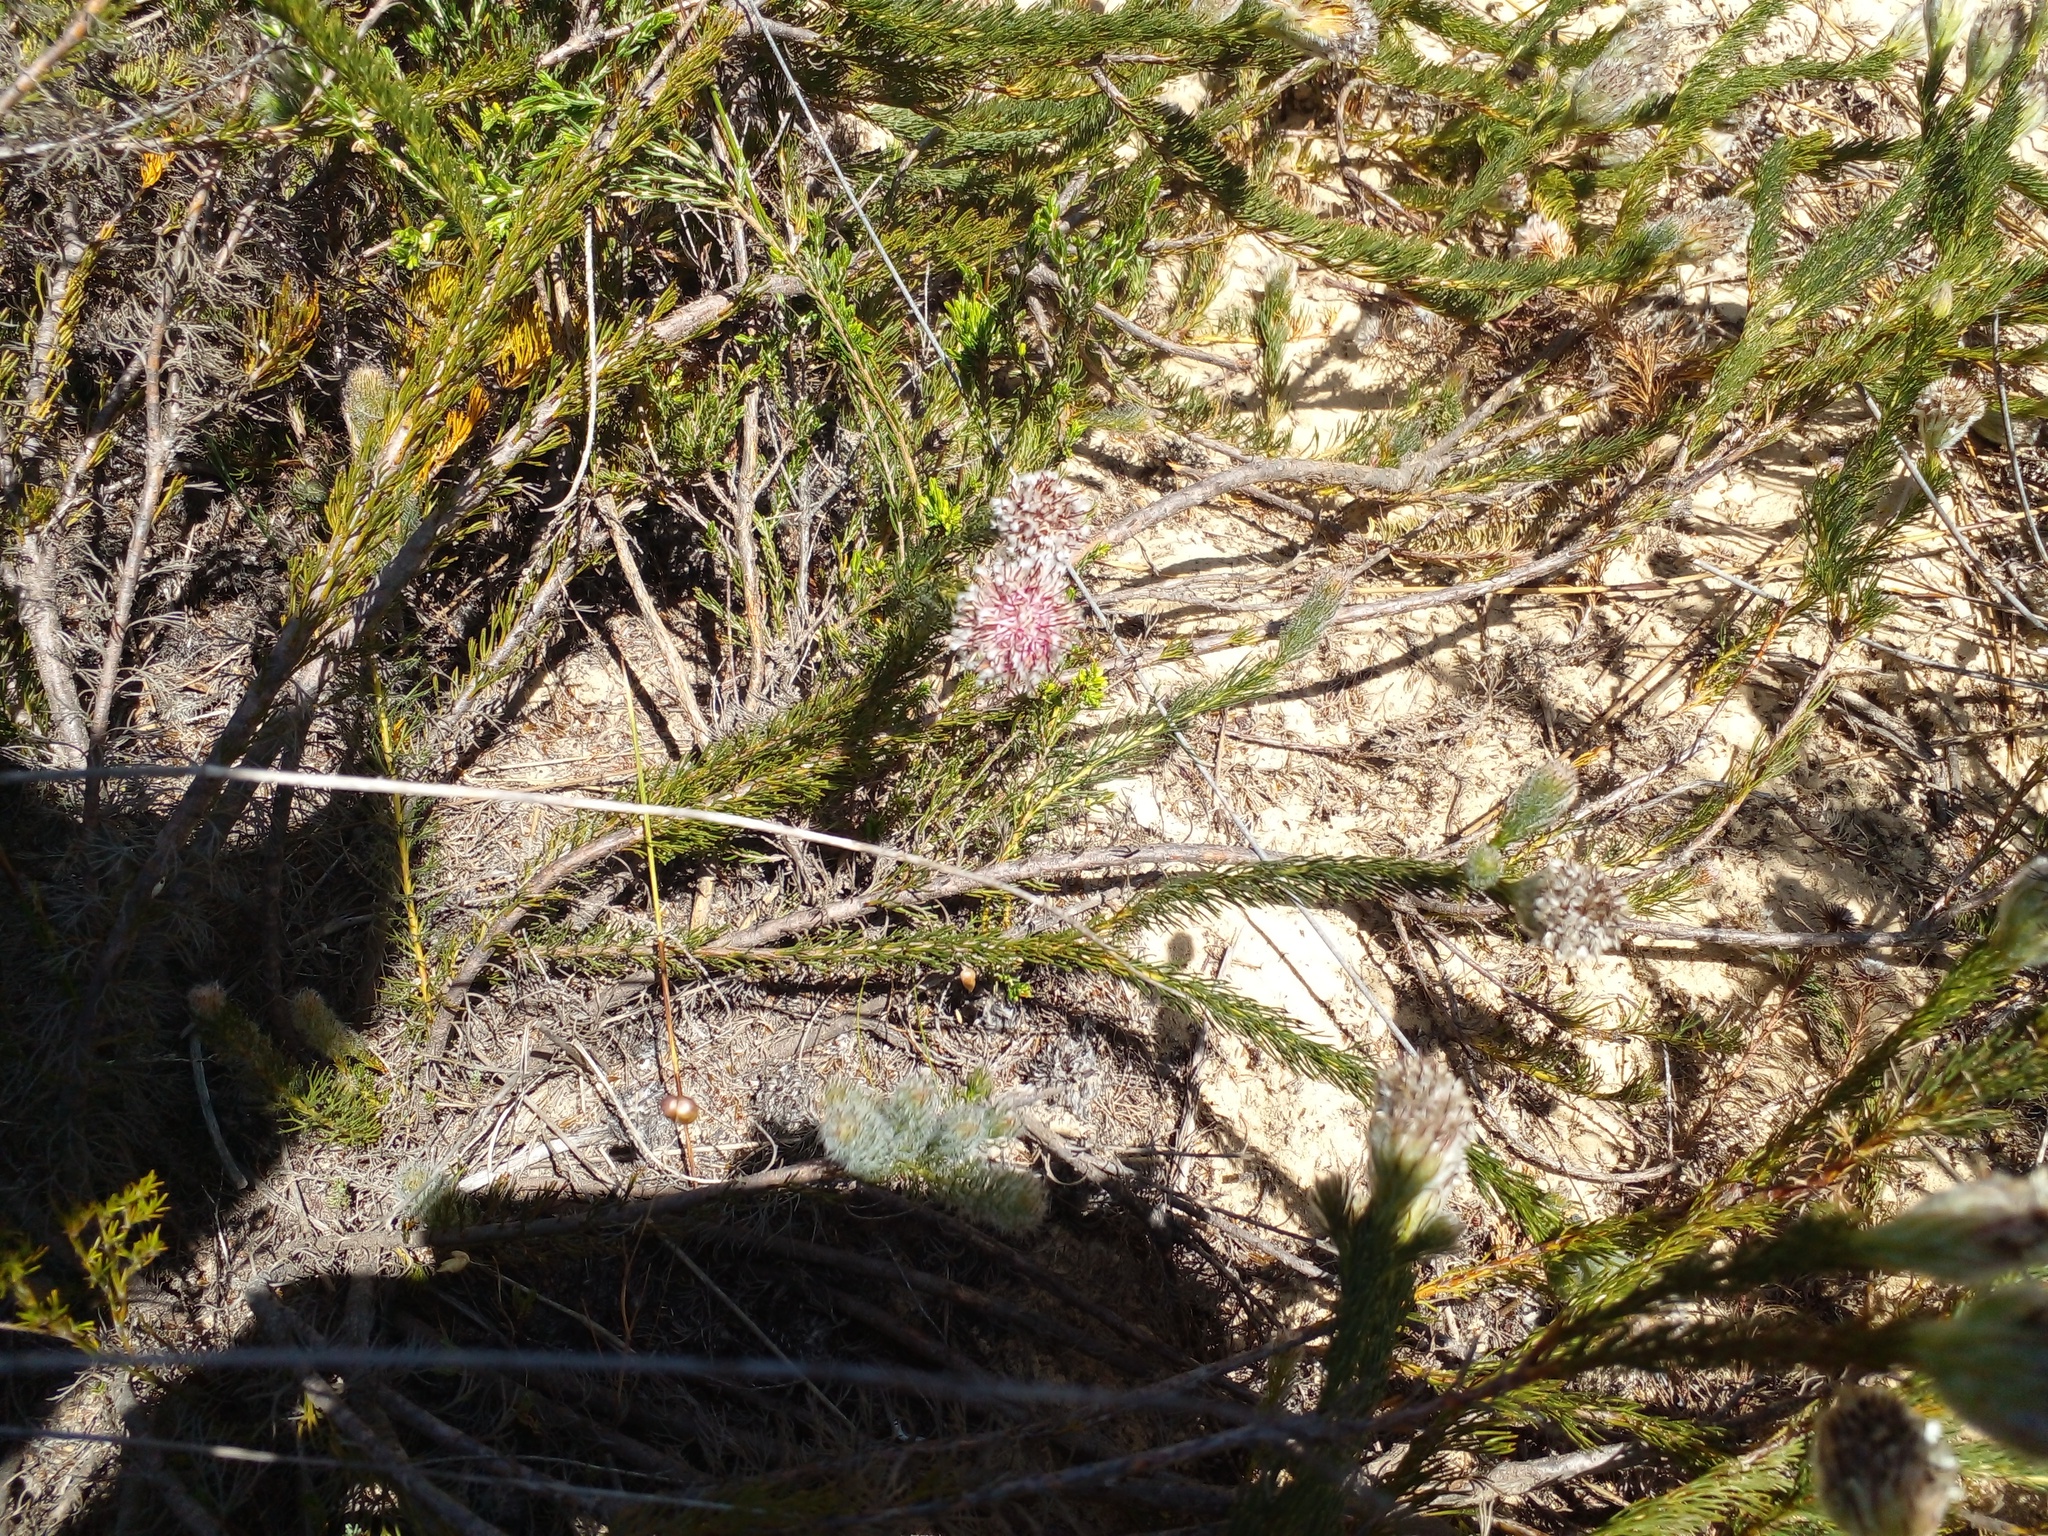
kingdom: Plantae
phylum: Tracheophyta
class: Magnoliopsida
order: Proteales
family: Proteaceae
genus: Serruria
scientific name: Serruria trilopha
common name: Trident spiderhead
